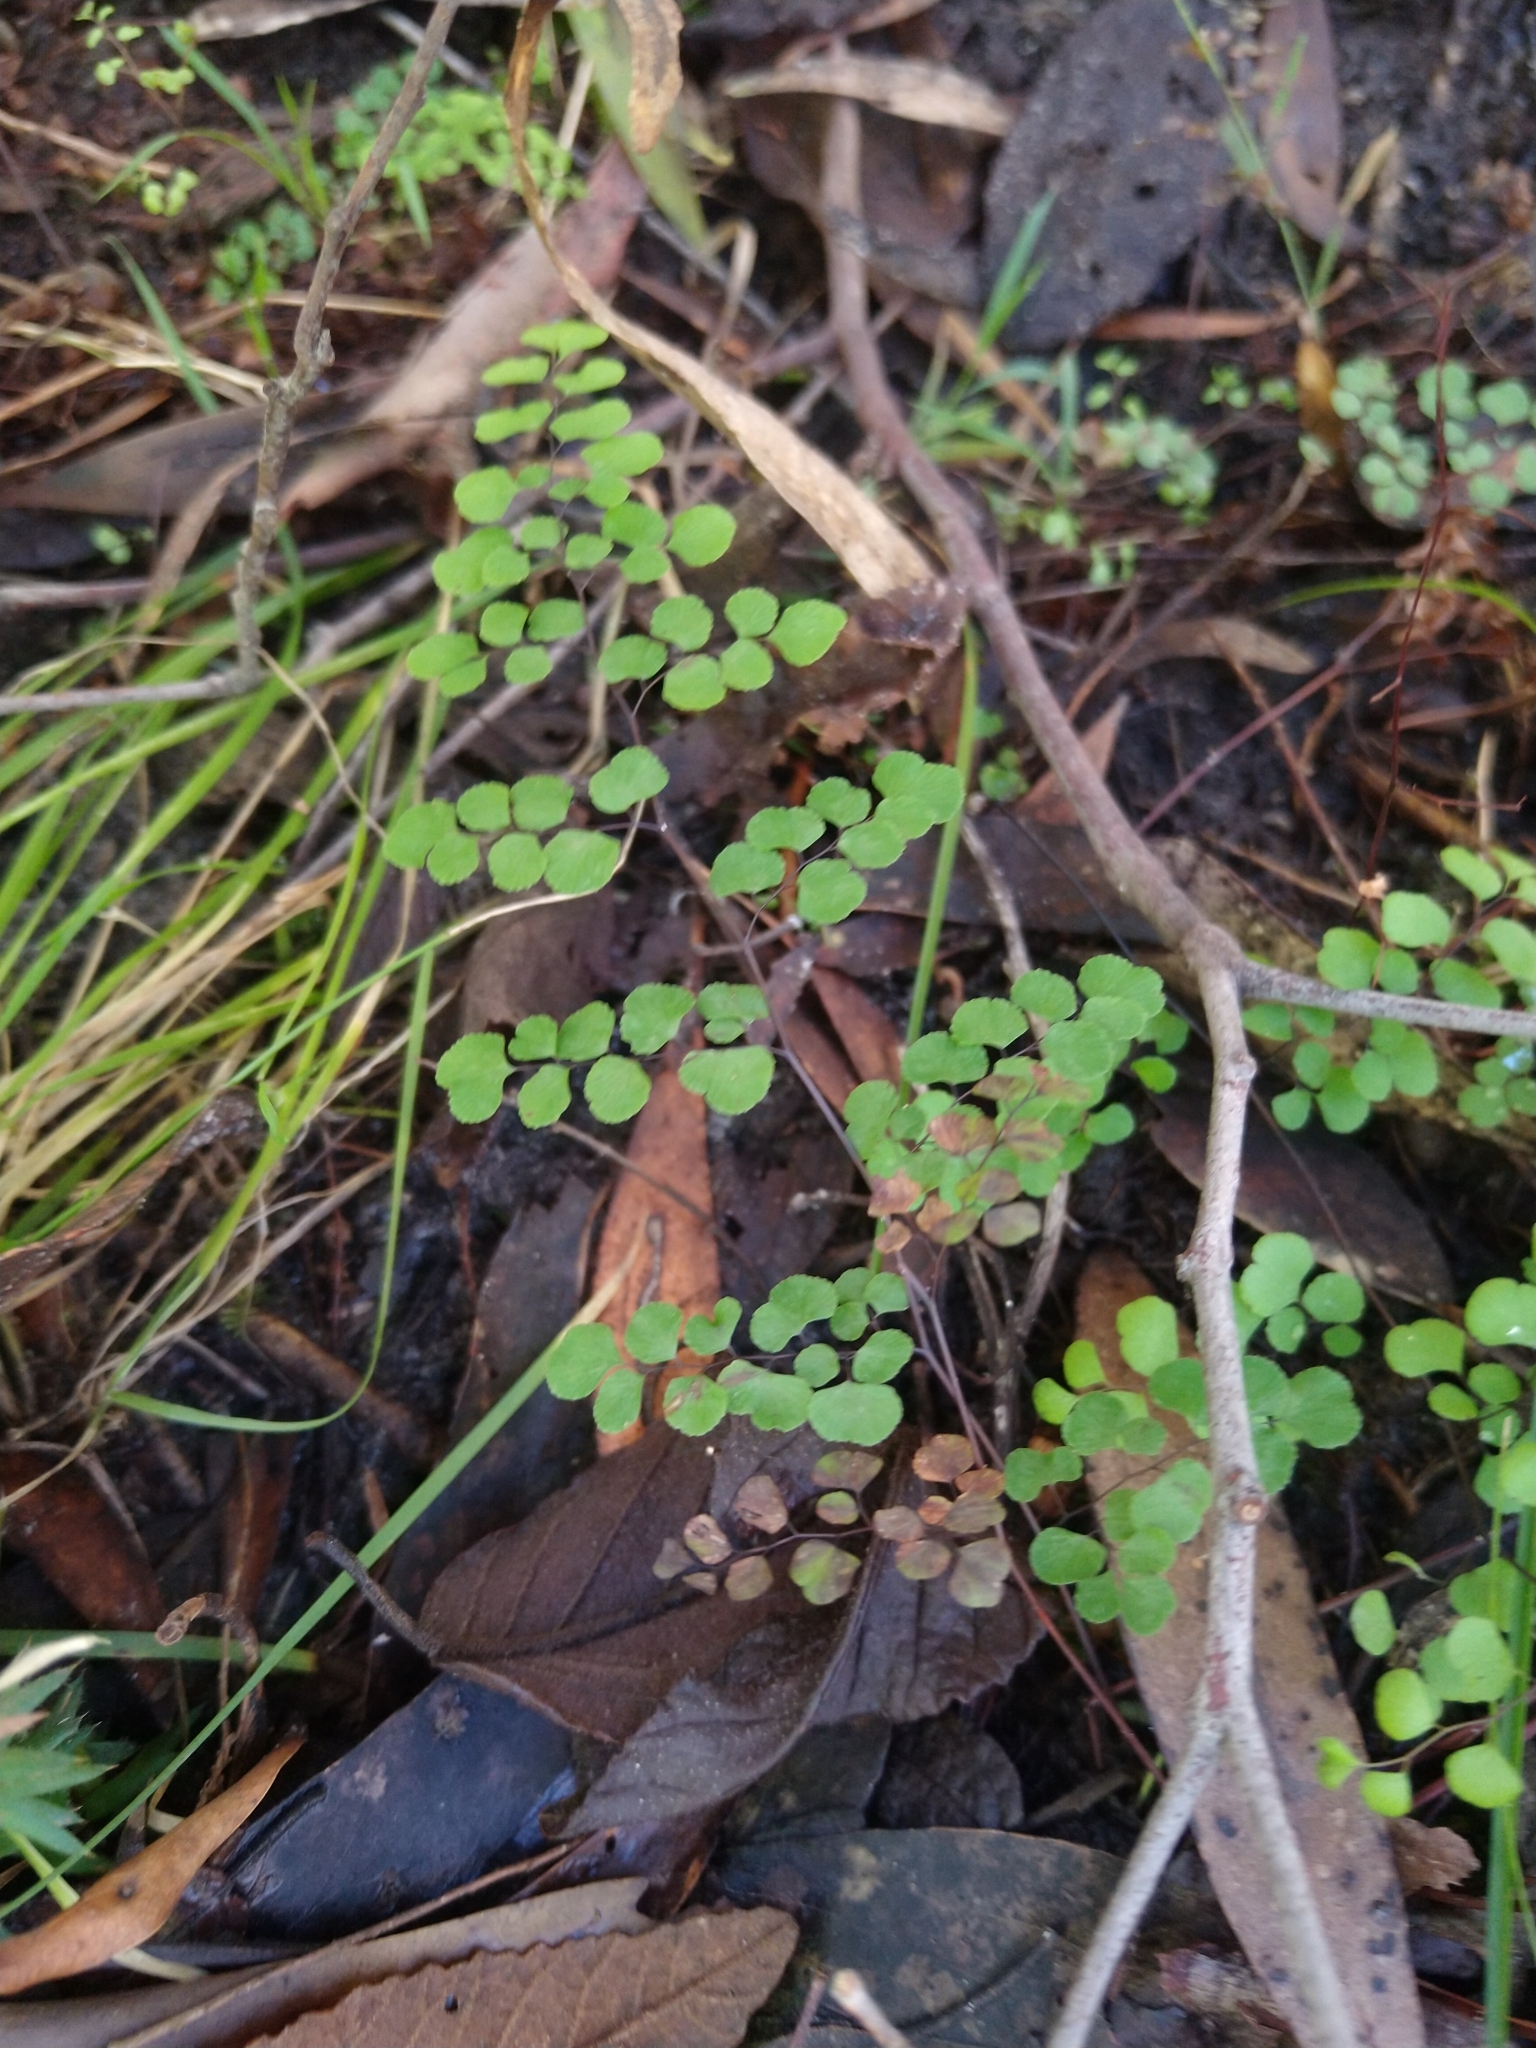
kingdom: Plantae
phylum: Tracheophyta
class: Polypodiopsida
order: Polypodiales
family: Pteridaceae
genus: Adiantum
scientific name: Adiantum aethiopicum
